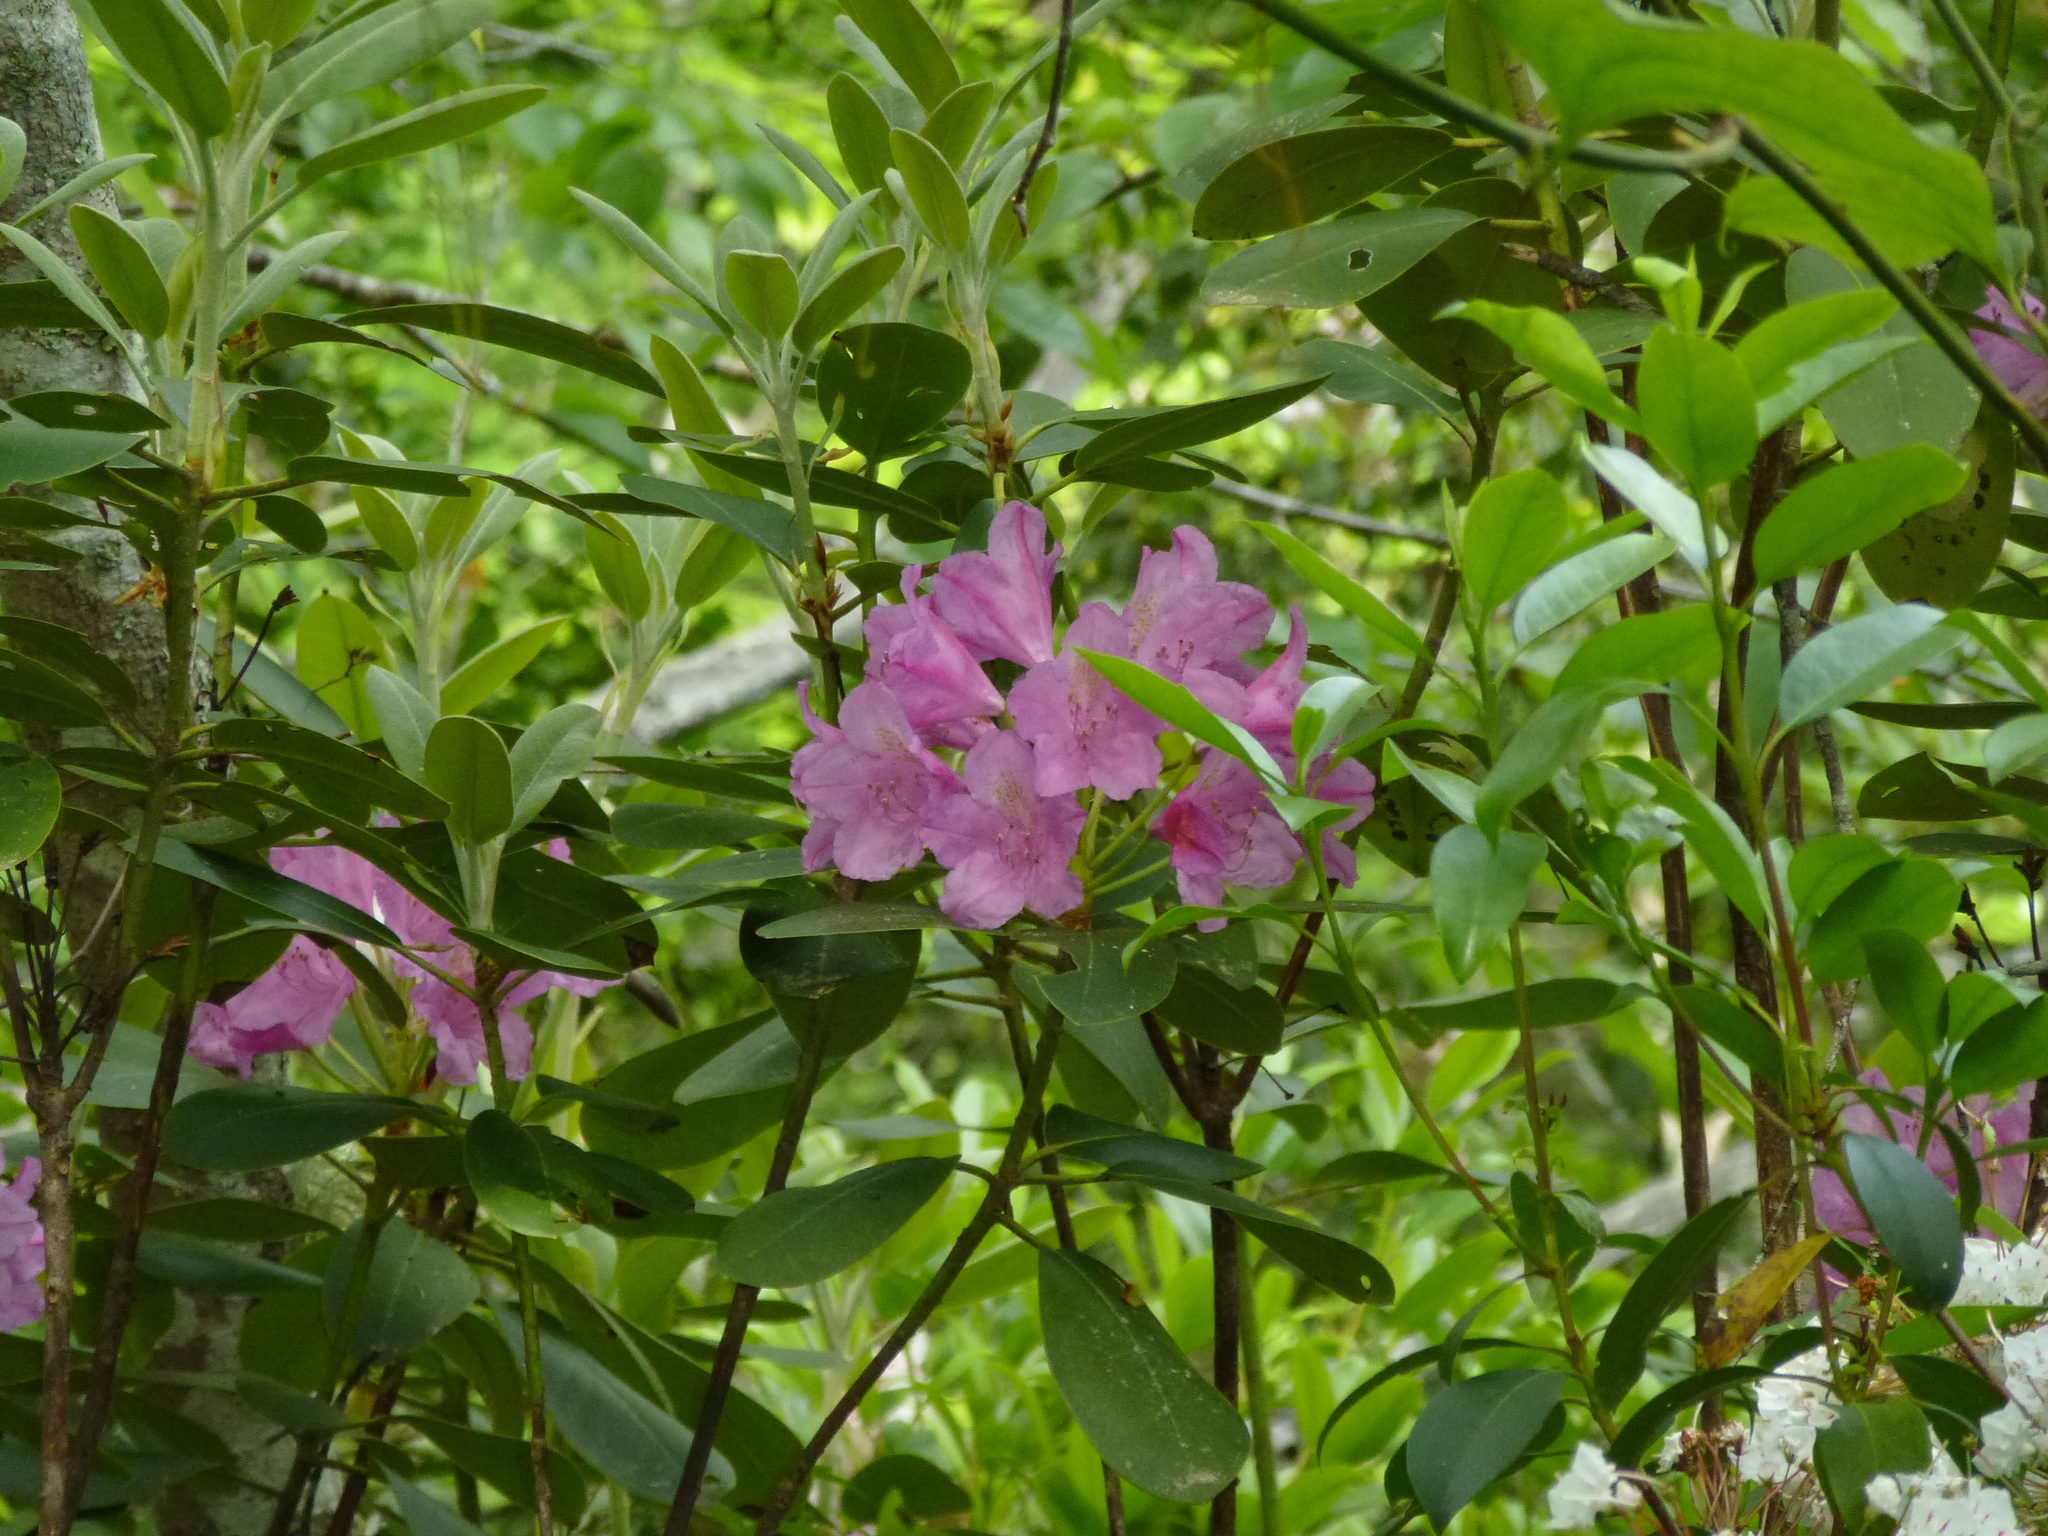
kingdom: Plantae
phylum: Tracheophyta
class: Magnoliopsida
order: Ericales
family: Ericaceae
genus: Rhododendron
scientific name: Rhododendron catawbiense
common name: Catawba rhododendron
